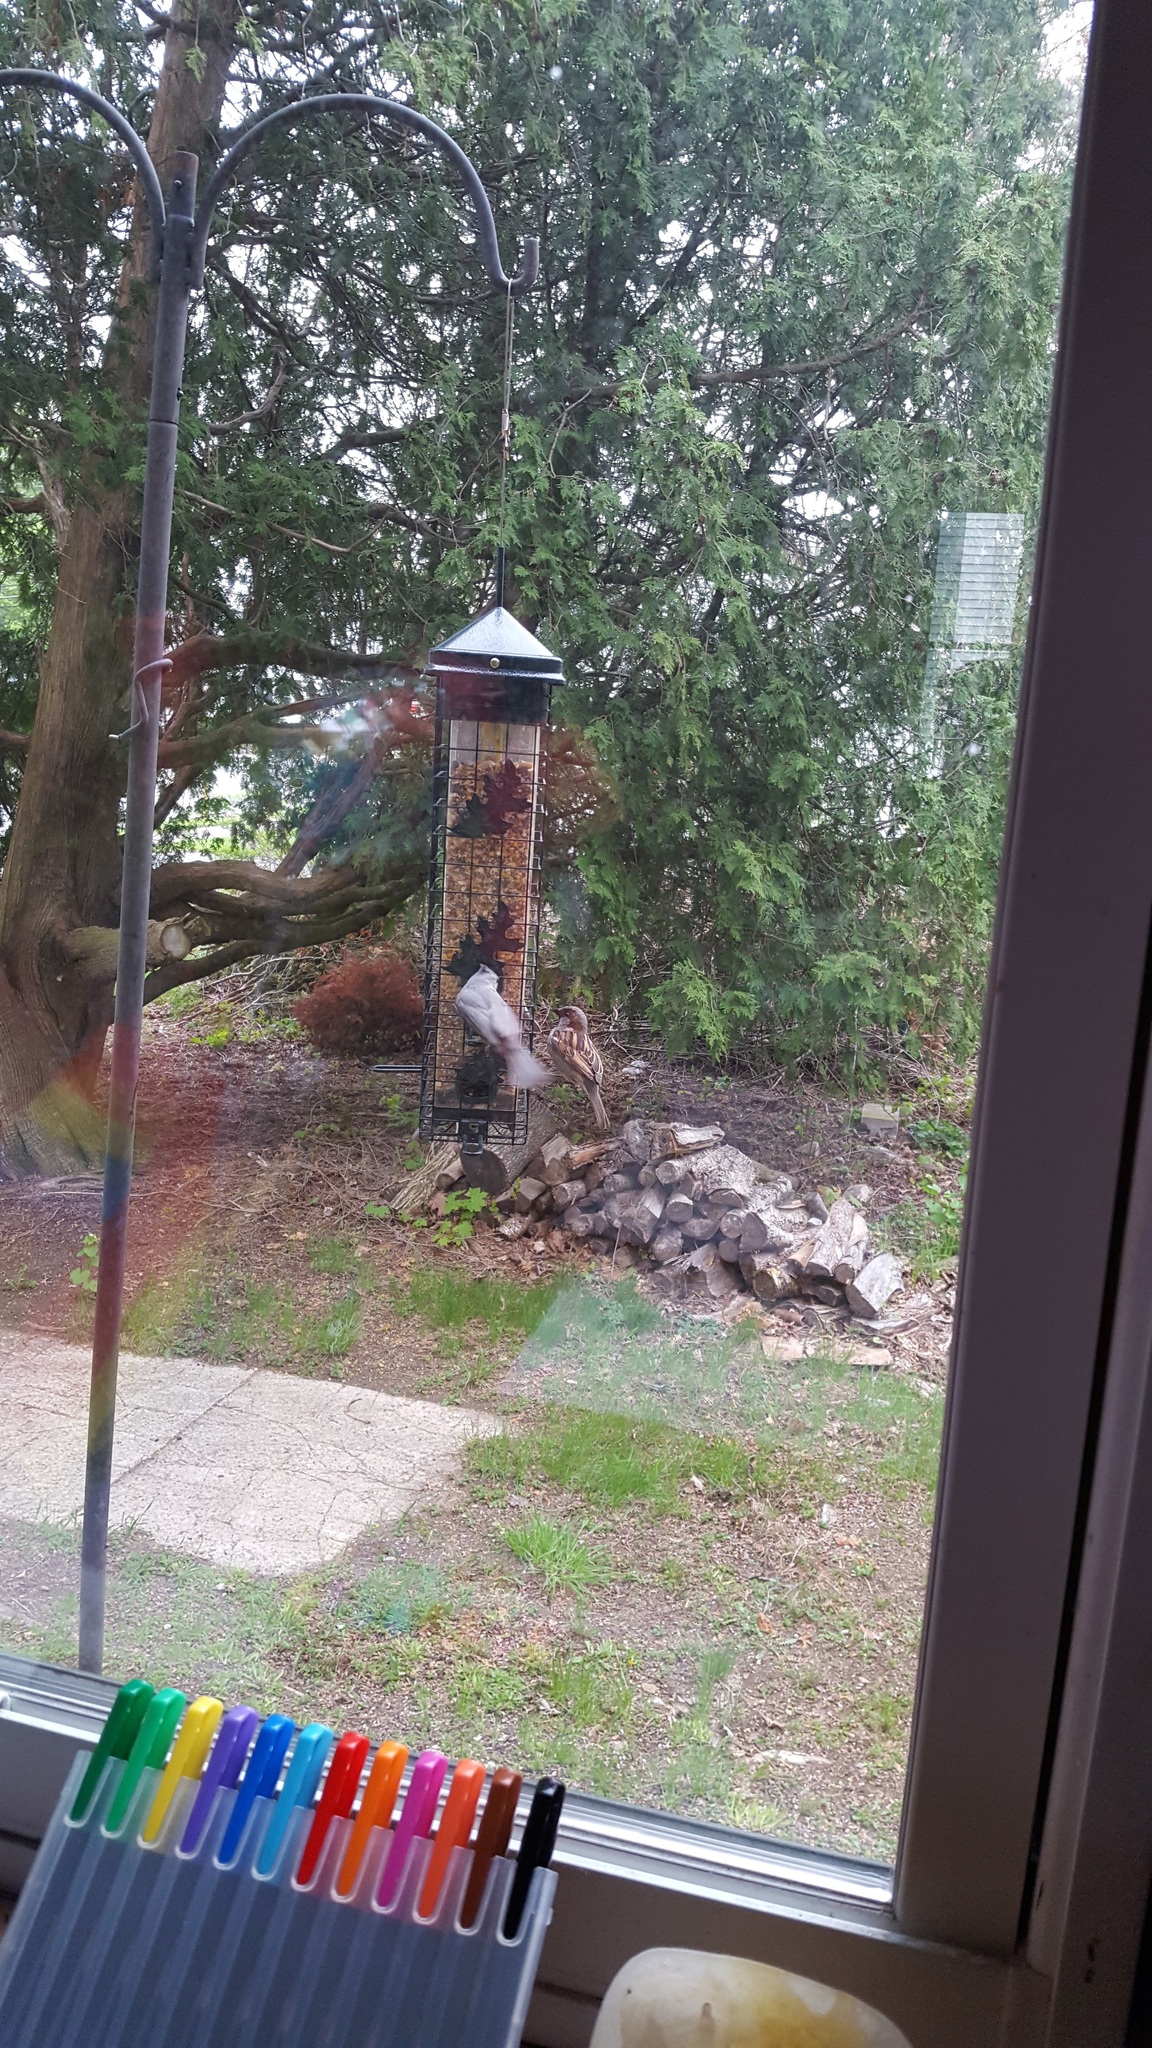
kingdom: Animalia
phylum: Chordata
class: Aves
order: Passeriformes
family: Paridae
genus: Baeolophus
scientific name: Baeolophus bicolor
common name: Tufted titmouse
